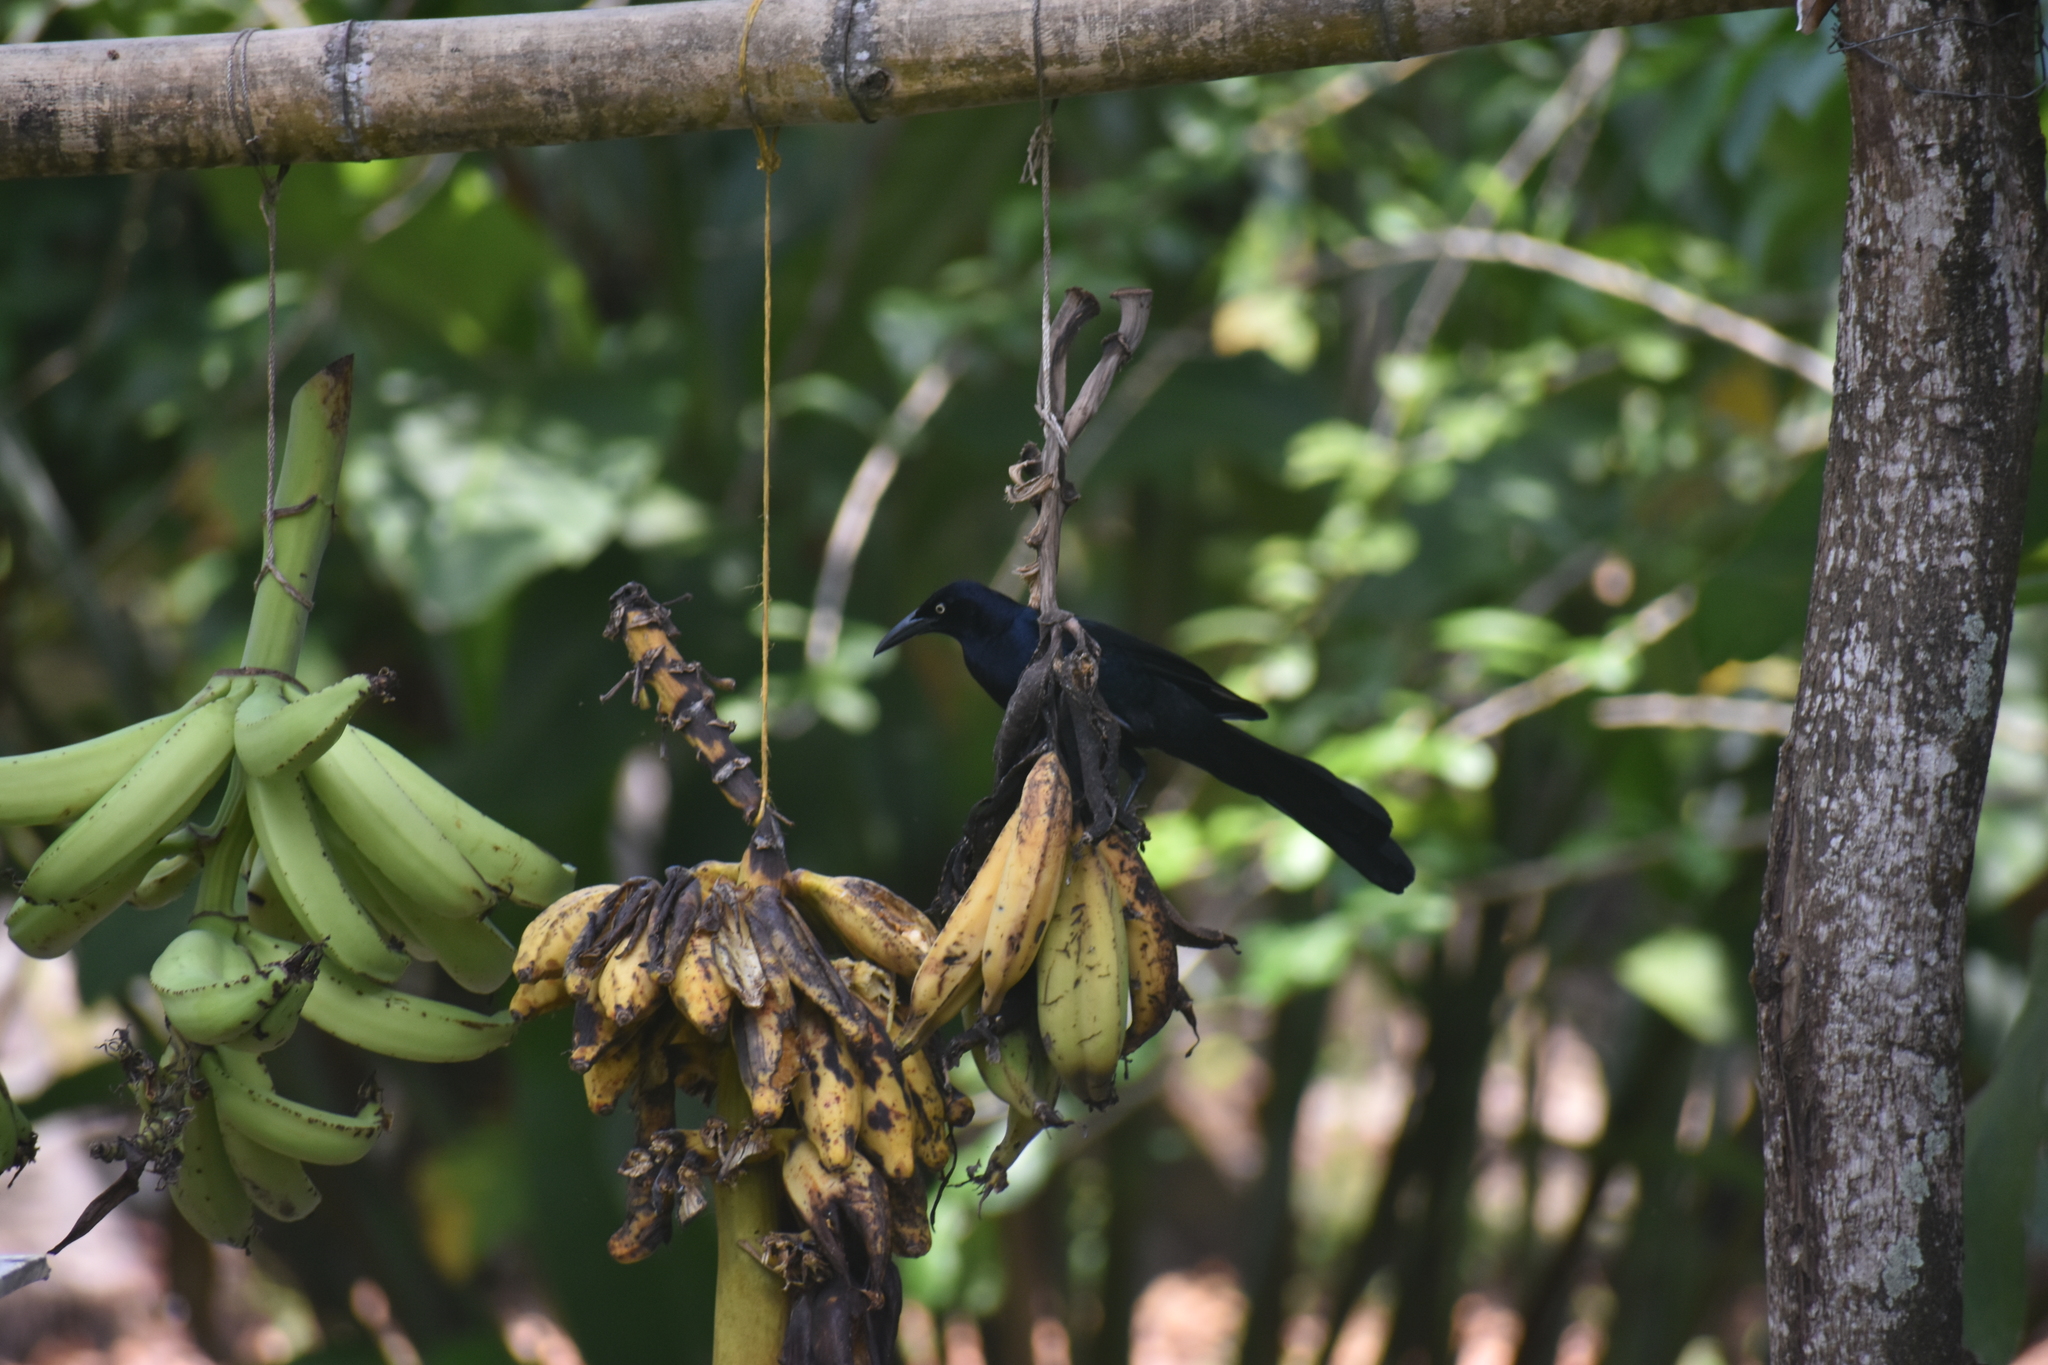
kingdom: Animalia
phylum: Chordata
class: Aves
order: Passeriformes
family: Icteridae
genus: Quiscalus
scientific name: Quiscalus mexicanus
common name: Great-tailed grackle
